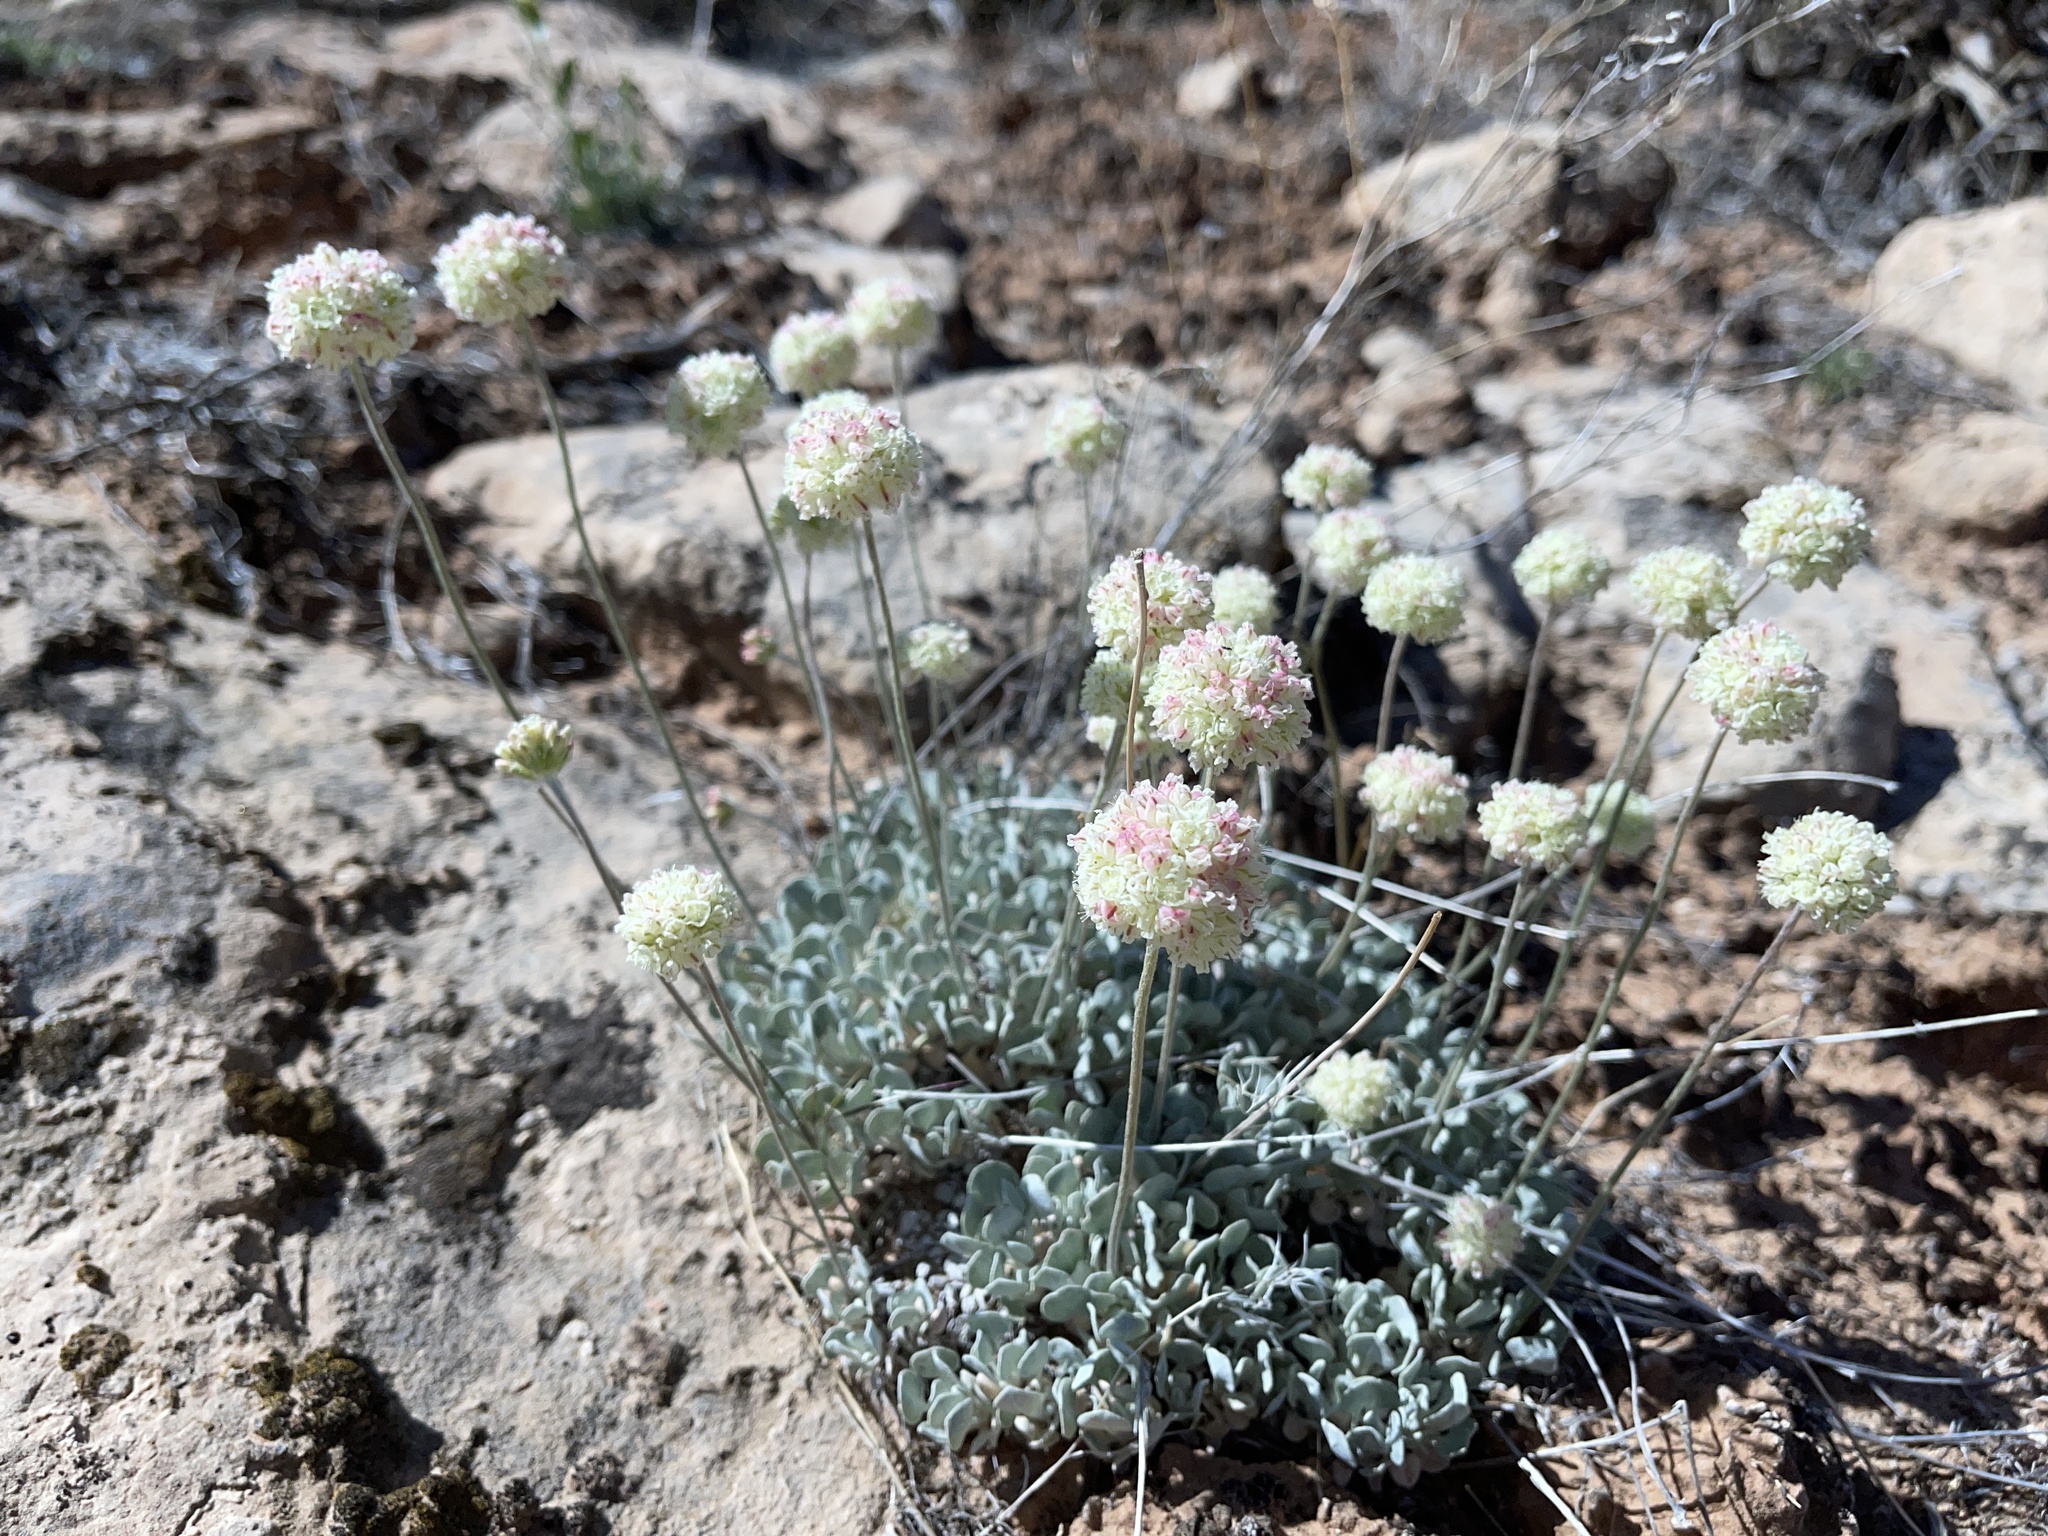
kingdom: Plantae
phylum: Tracheophyta
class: Magnoliopsida
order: Caryophyllales
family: Polygonaceae
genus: Eriogonum
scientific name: Eriogonum ovalifolium
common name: Cushion buckwheat
